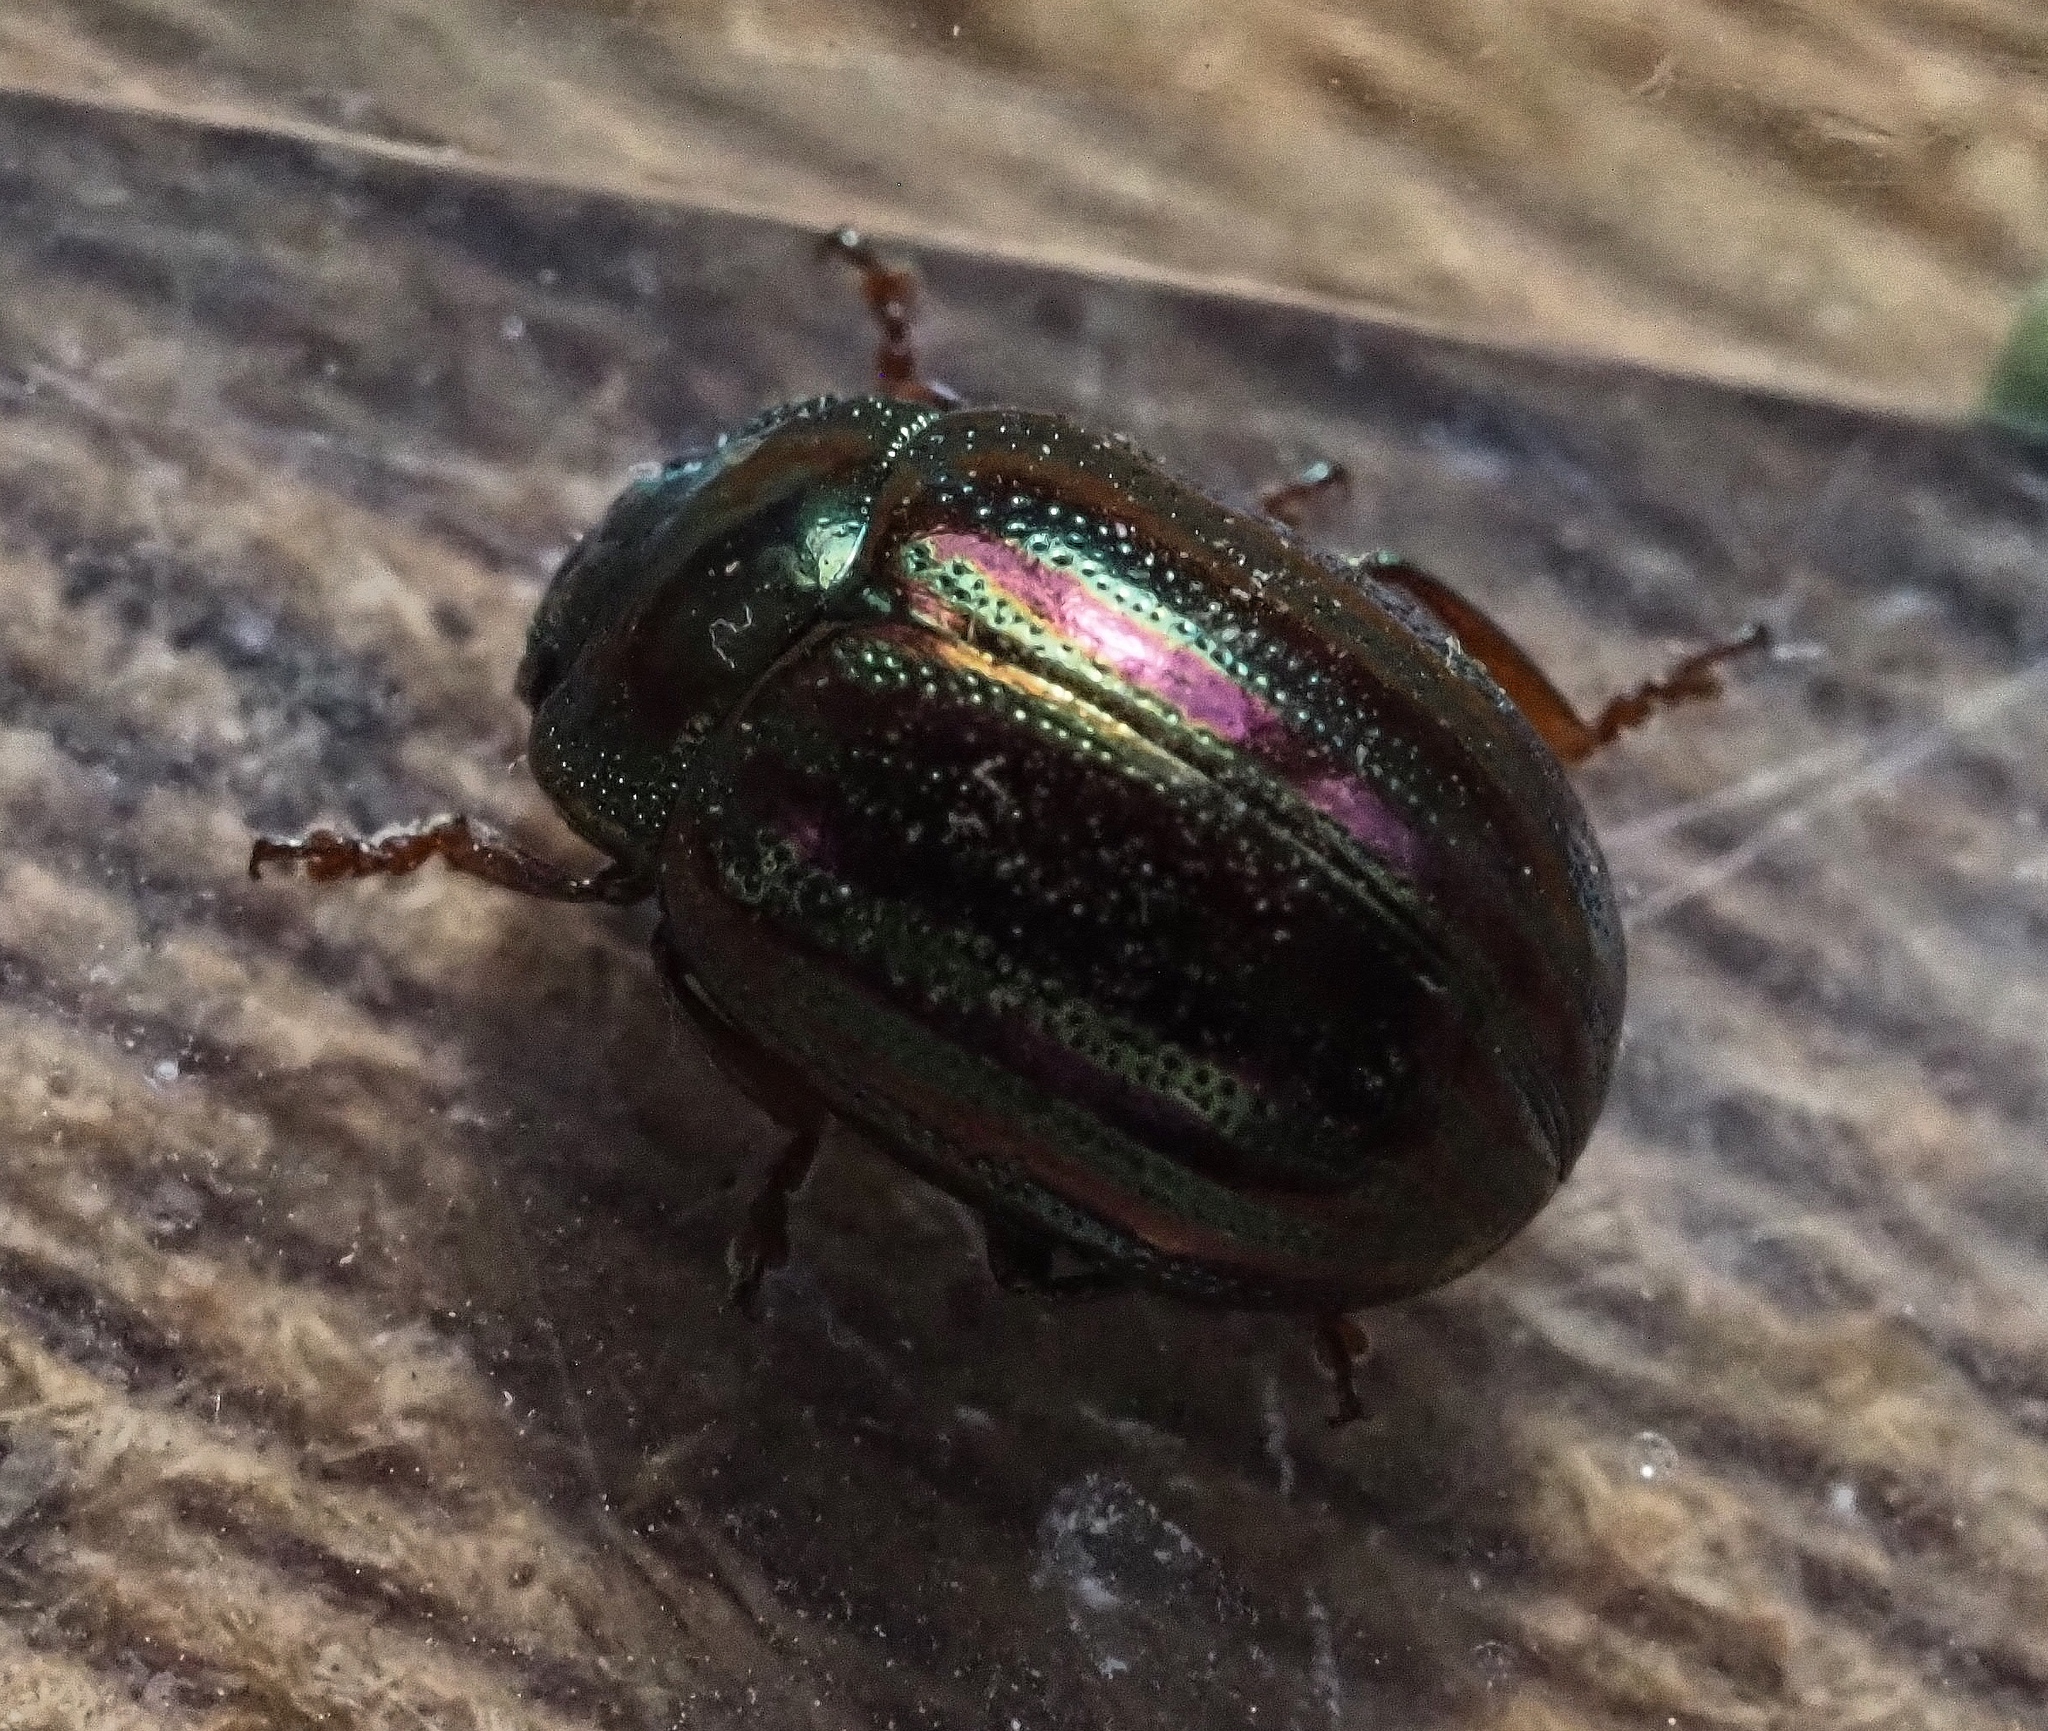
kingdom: Animalia
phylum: Arthropoda
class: Insecta
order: Coleoptera
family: Chrysomelidae
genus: Chrysolina
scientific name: Chrysolina americana
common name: Rosemary beetle
